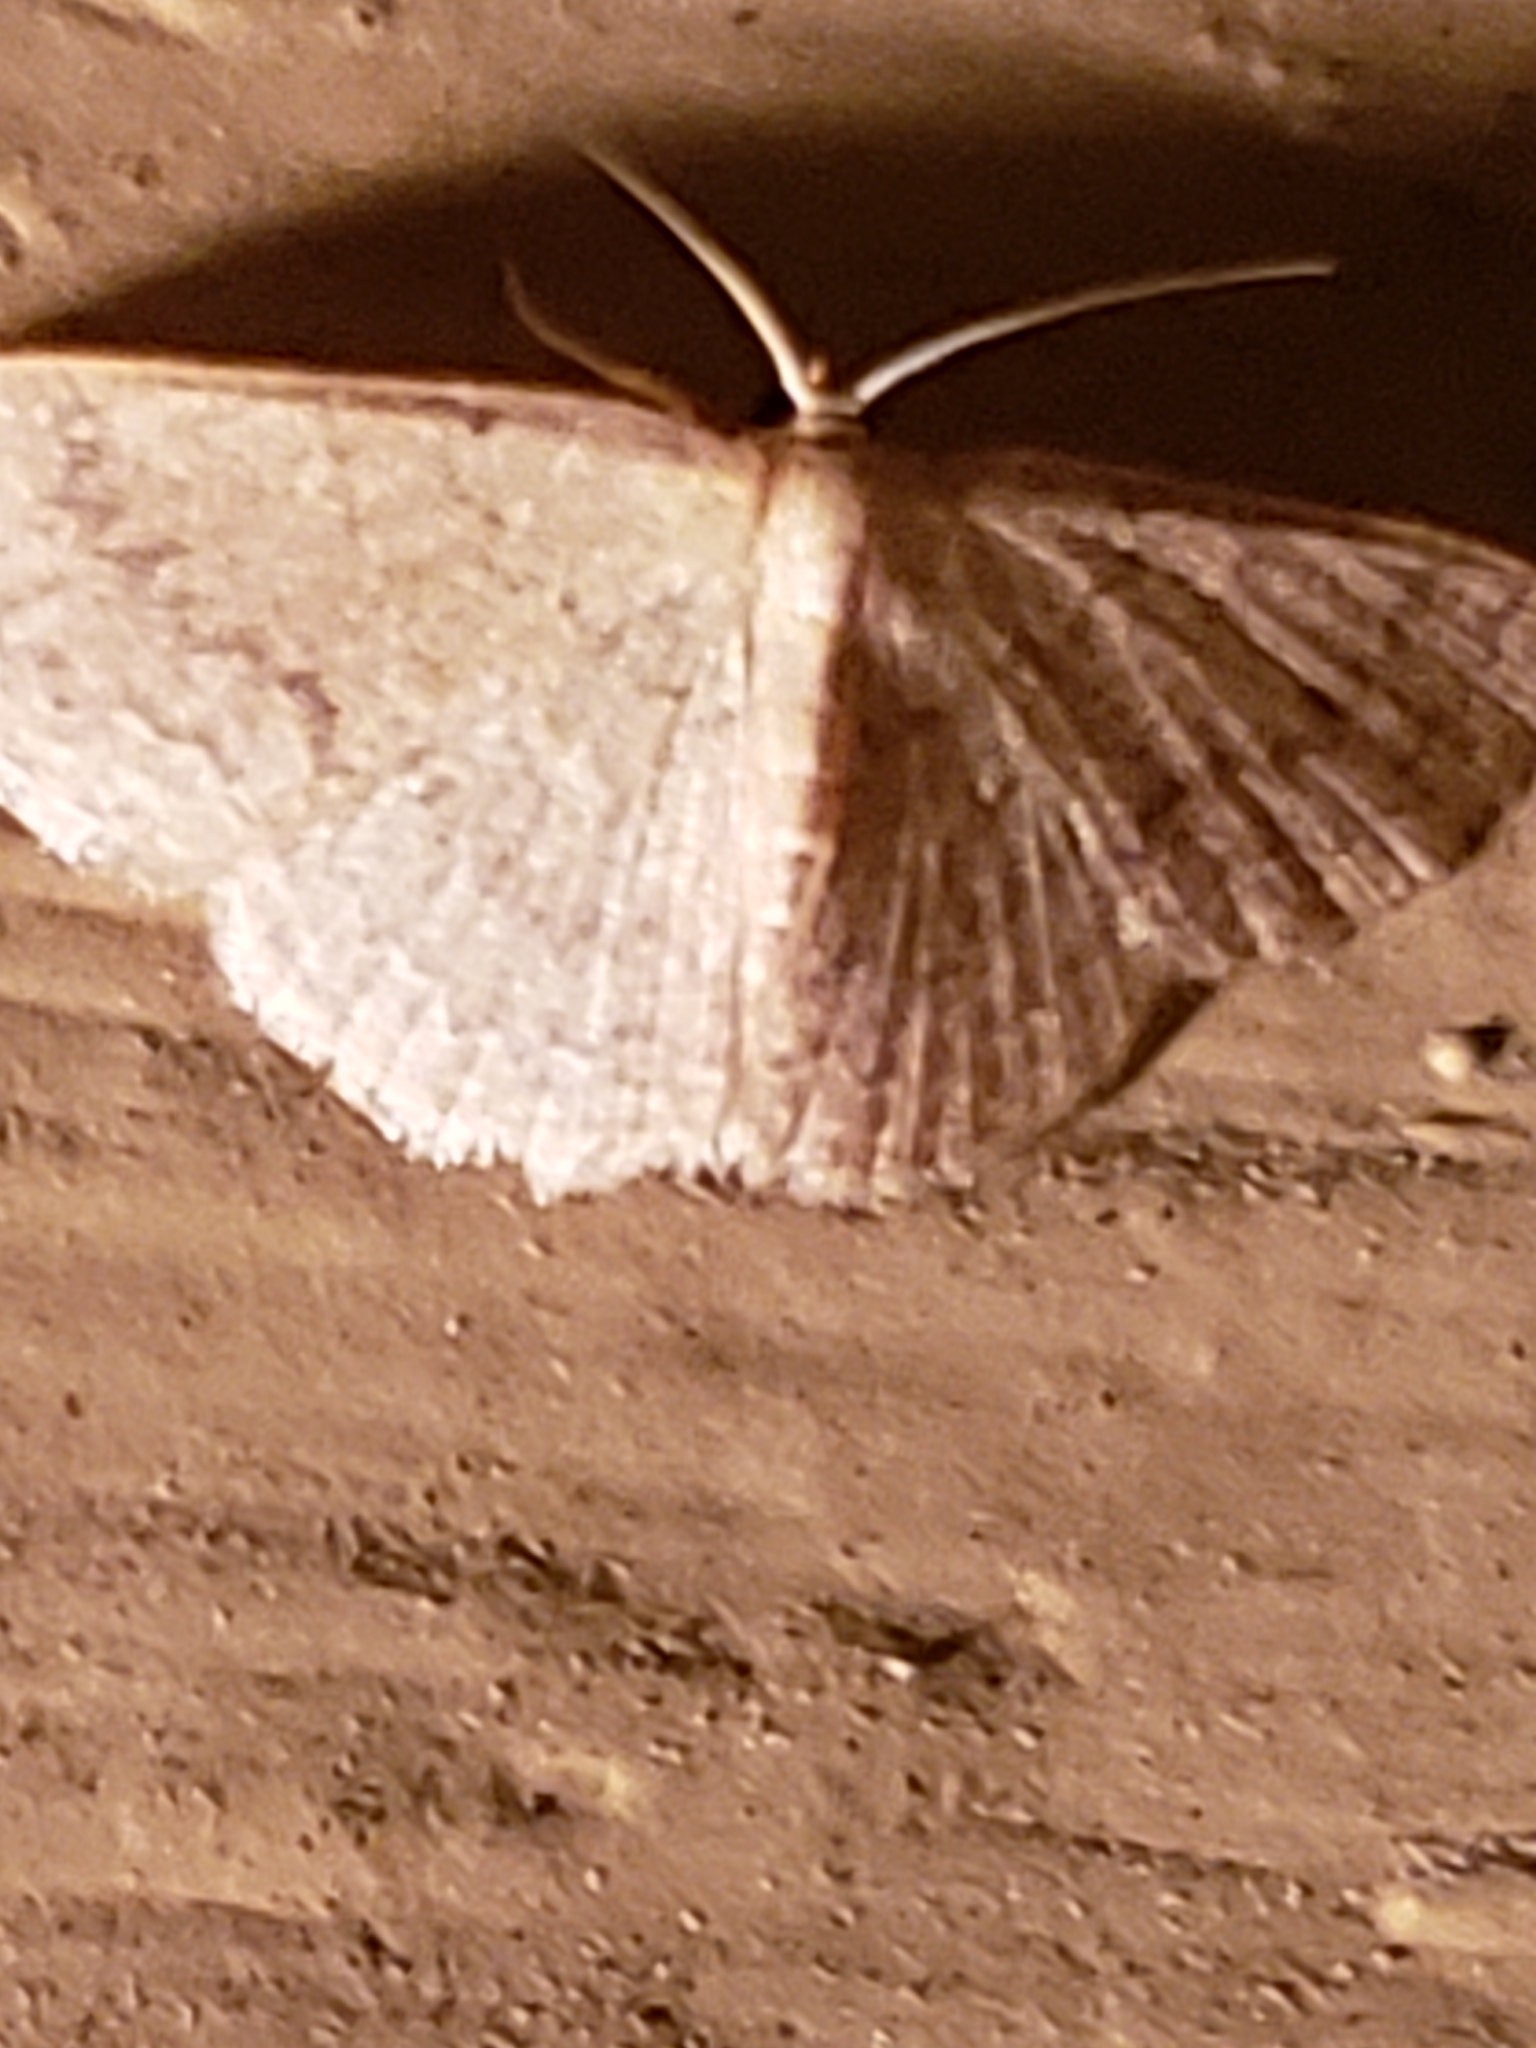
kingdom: Animalia
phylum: Arthropoda
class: Insecta
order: Lepidoptera
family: Geometridae
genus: Pleuroprucha
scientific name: Pleuroprucha insulsaria
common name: Common tan wave
